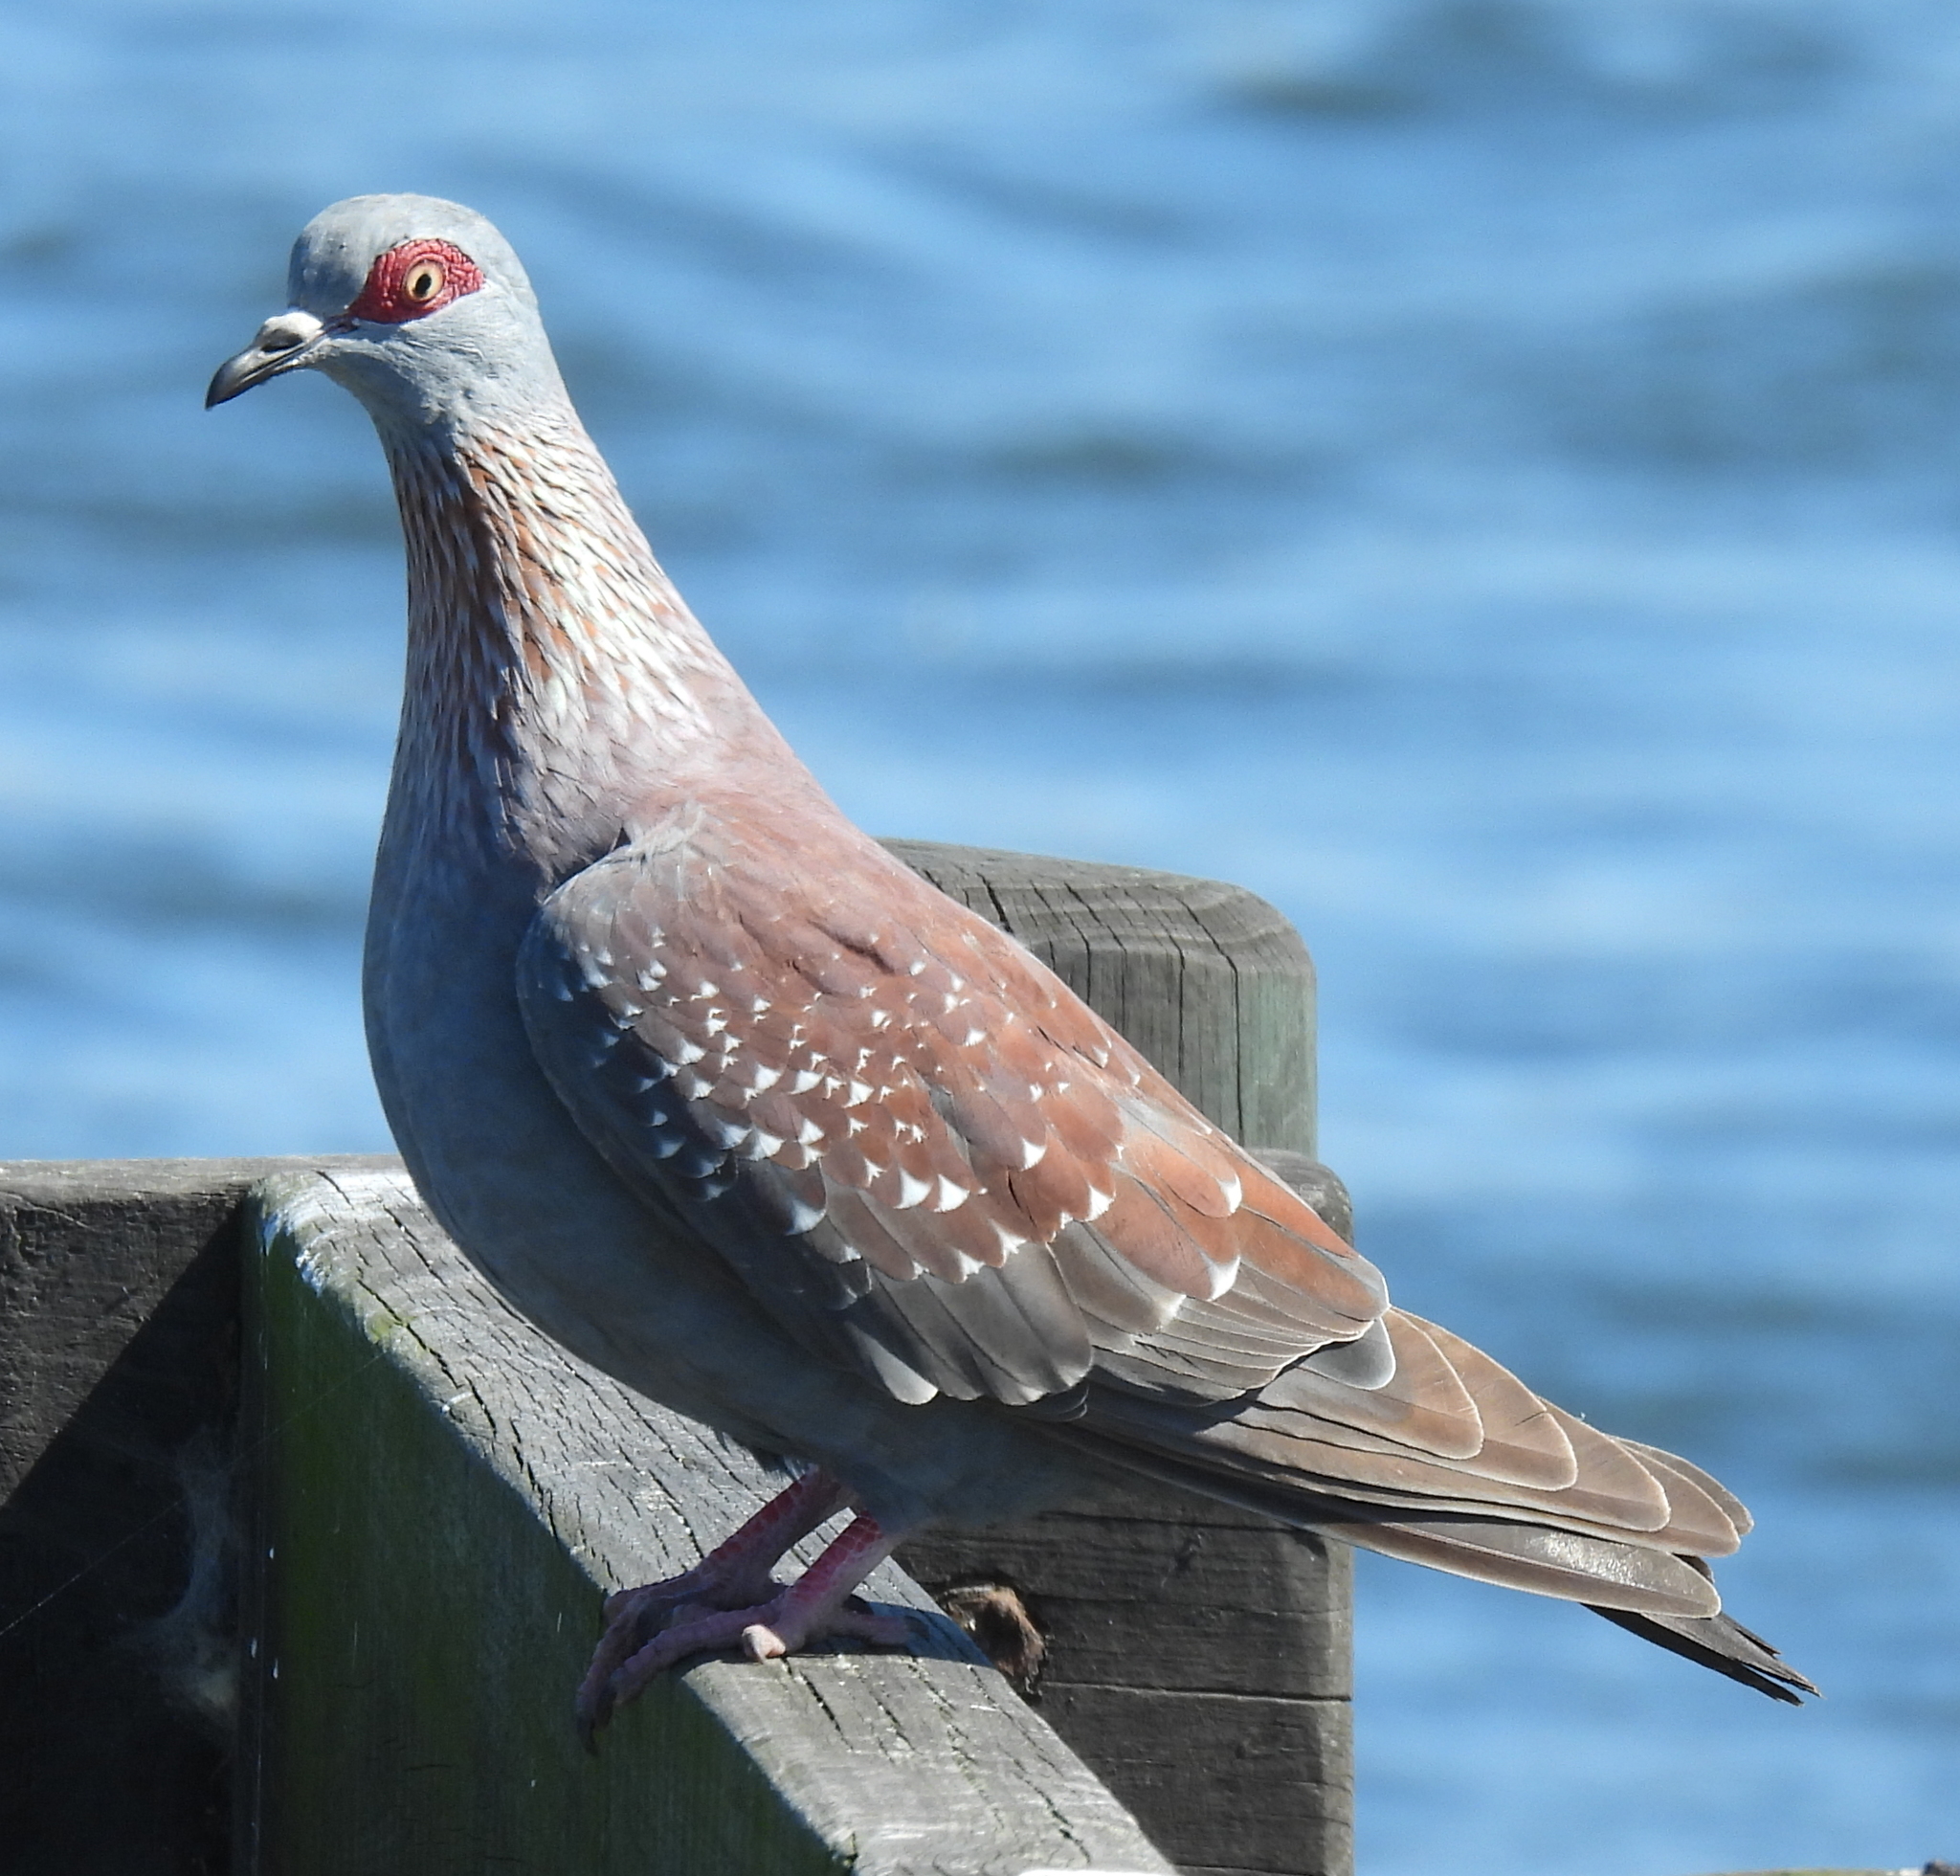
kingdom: Animalia
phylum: Chordata
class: Aves
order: Columbiformes
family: Columbidae
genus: Columba
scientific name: Columba guinea
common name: Speckled pigeon
